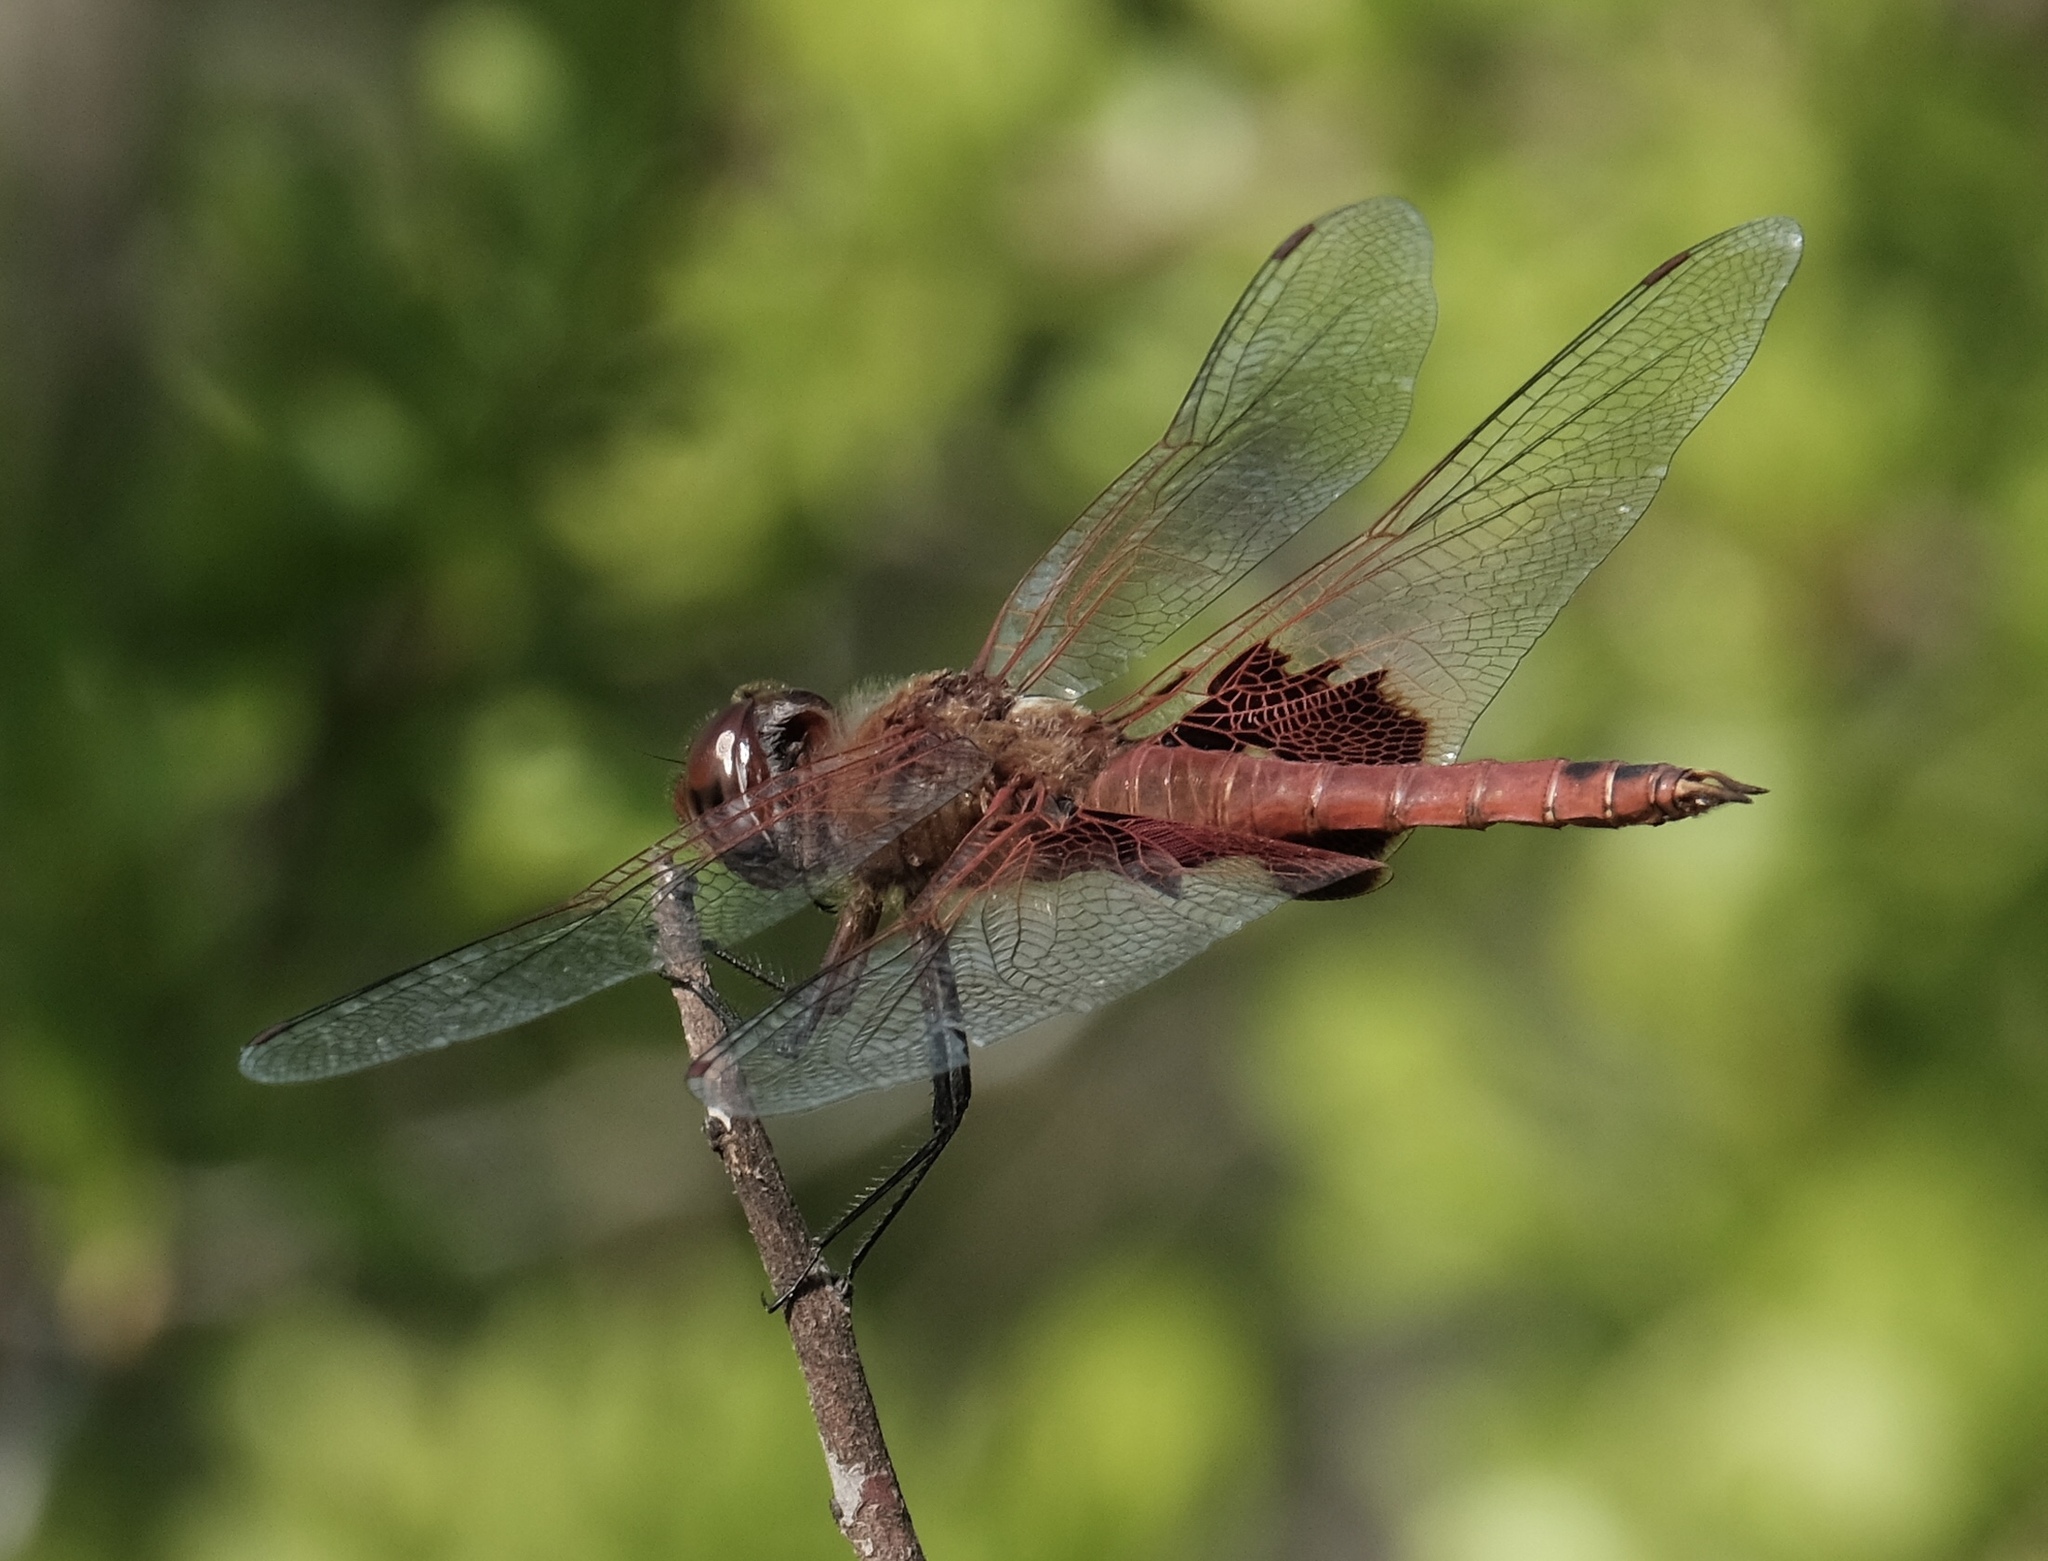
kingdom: Animalia
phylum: Arthropoda
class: Insecta
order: Odonata
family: Libellulidae
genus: Tramea
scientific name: Tramea onusta
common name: Red saddlebags
